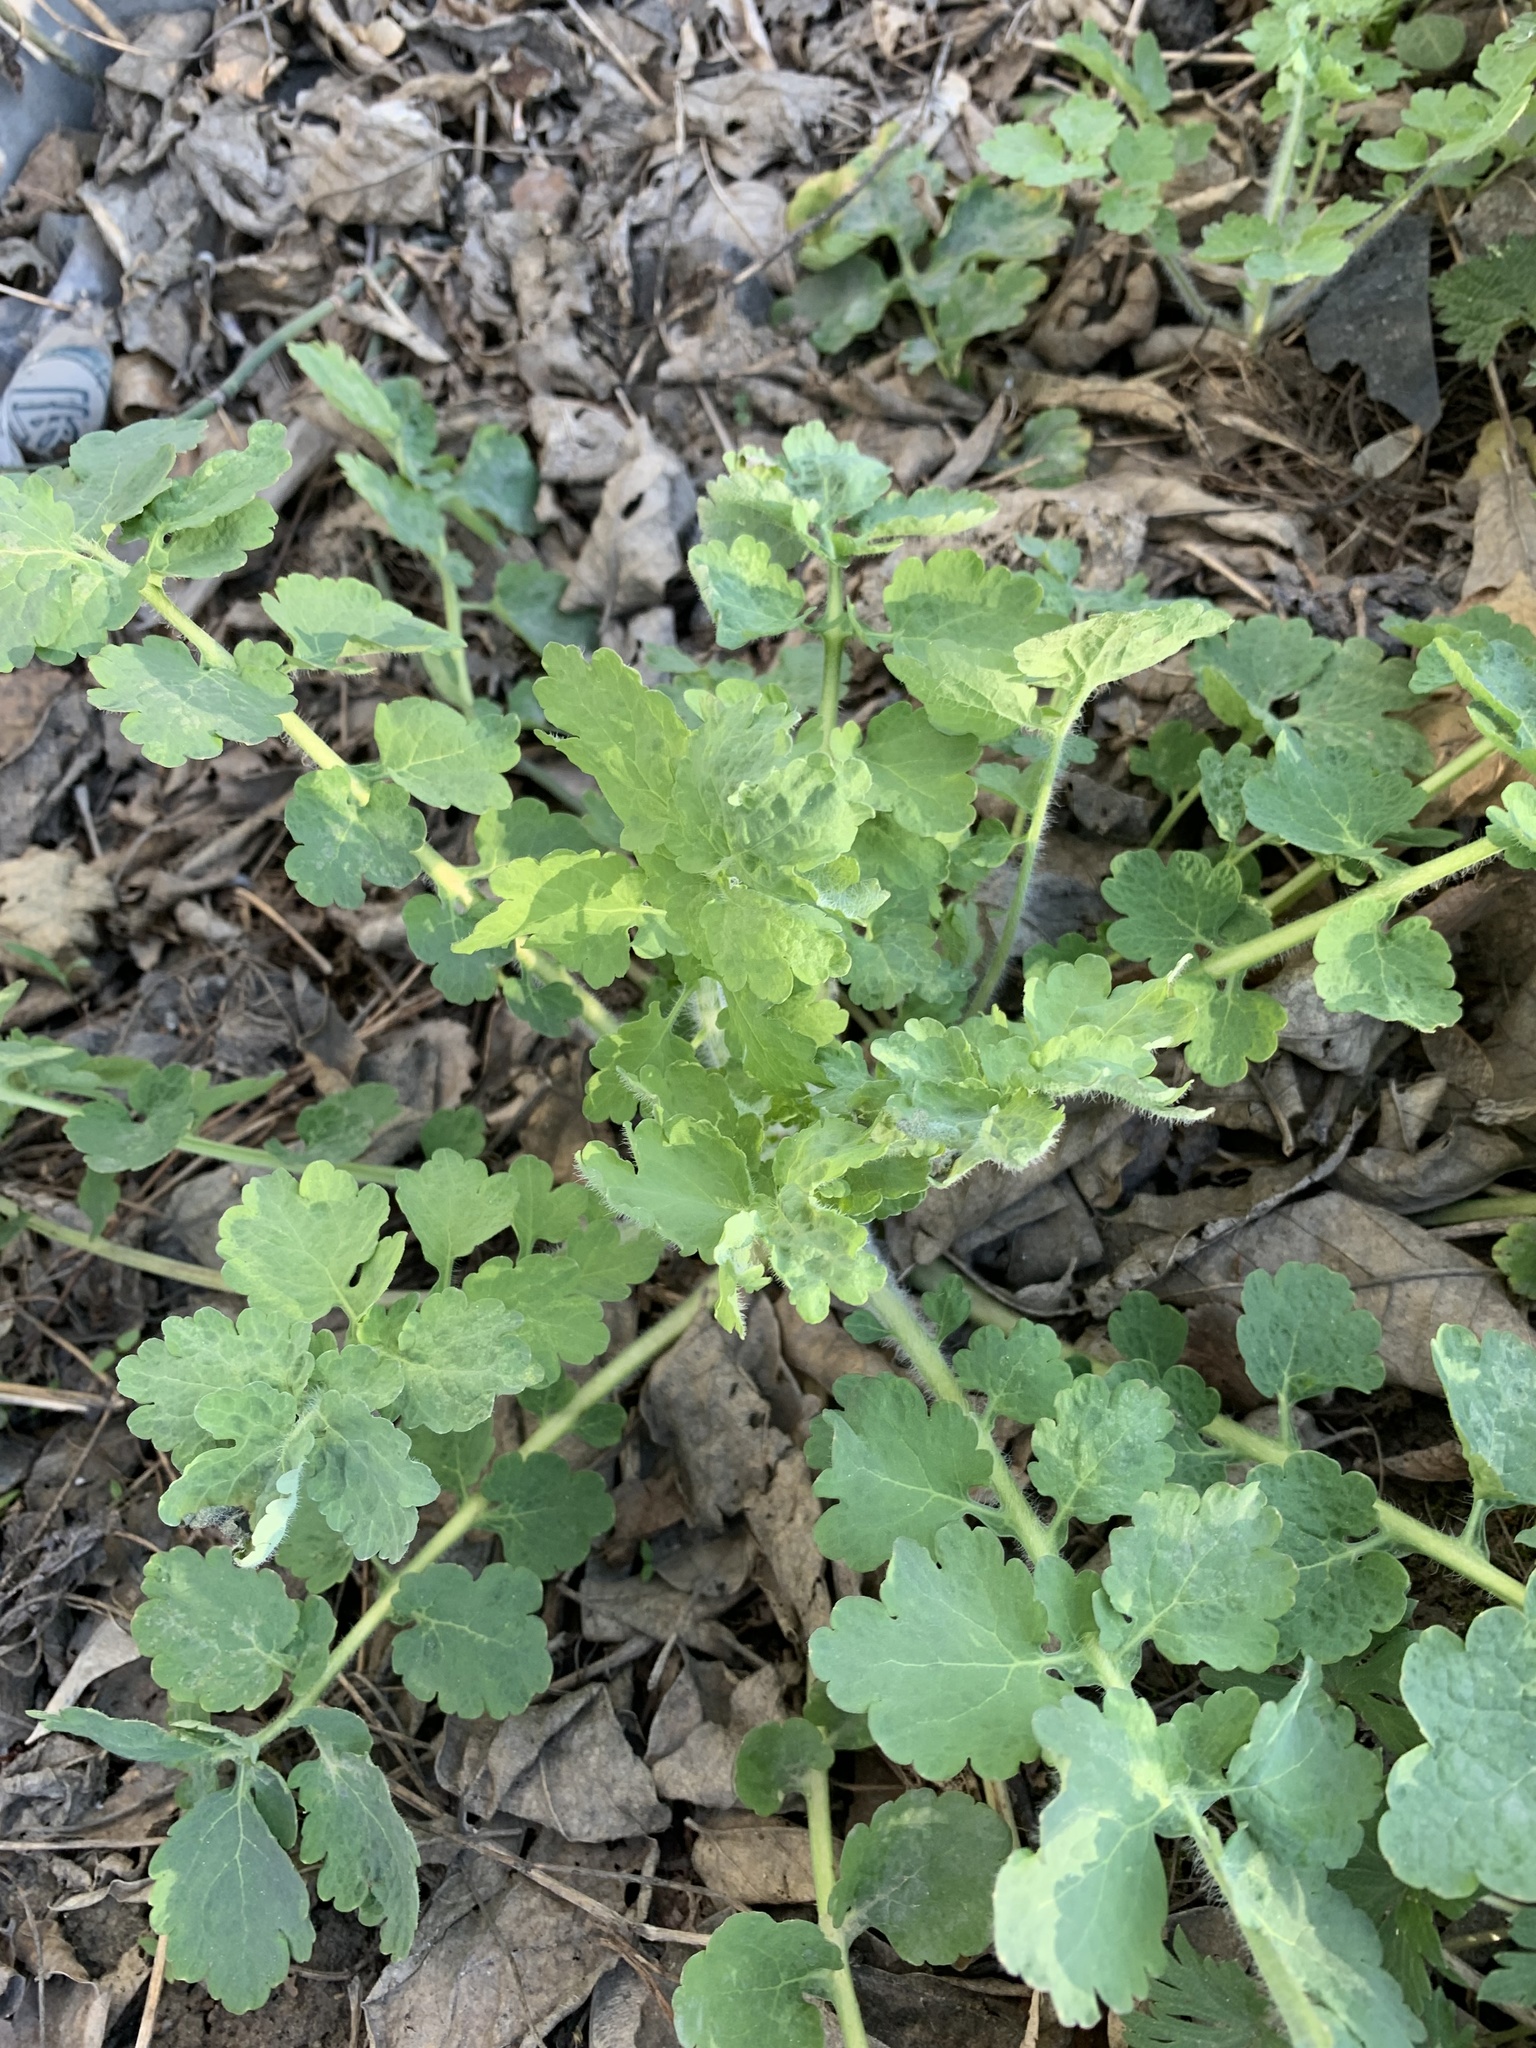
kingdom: Plantae
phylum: Tracheophyta
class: Magnoliopsida
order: Ranunculales
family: Papaveraceae
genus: Chelidonium
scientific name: Chelidonium majus
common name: Greater celandine
